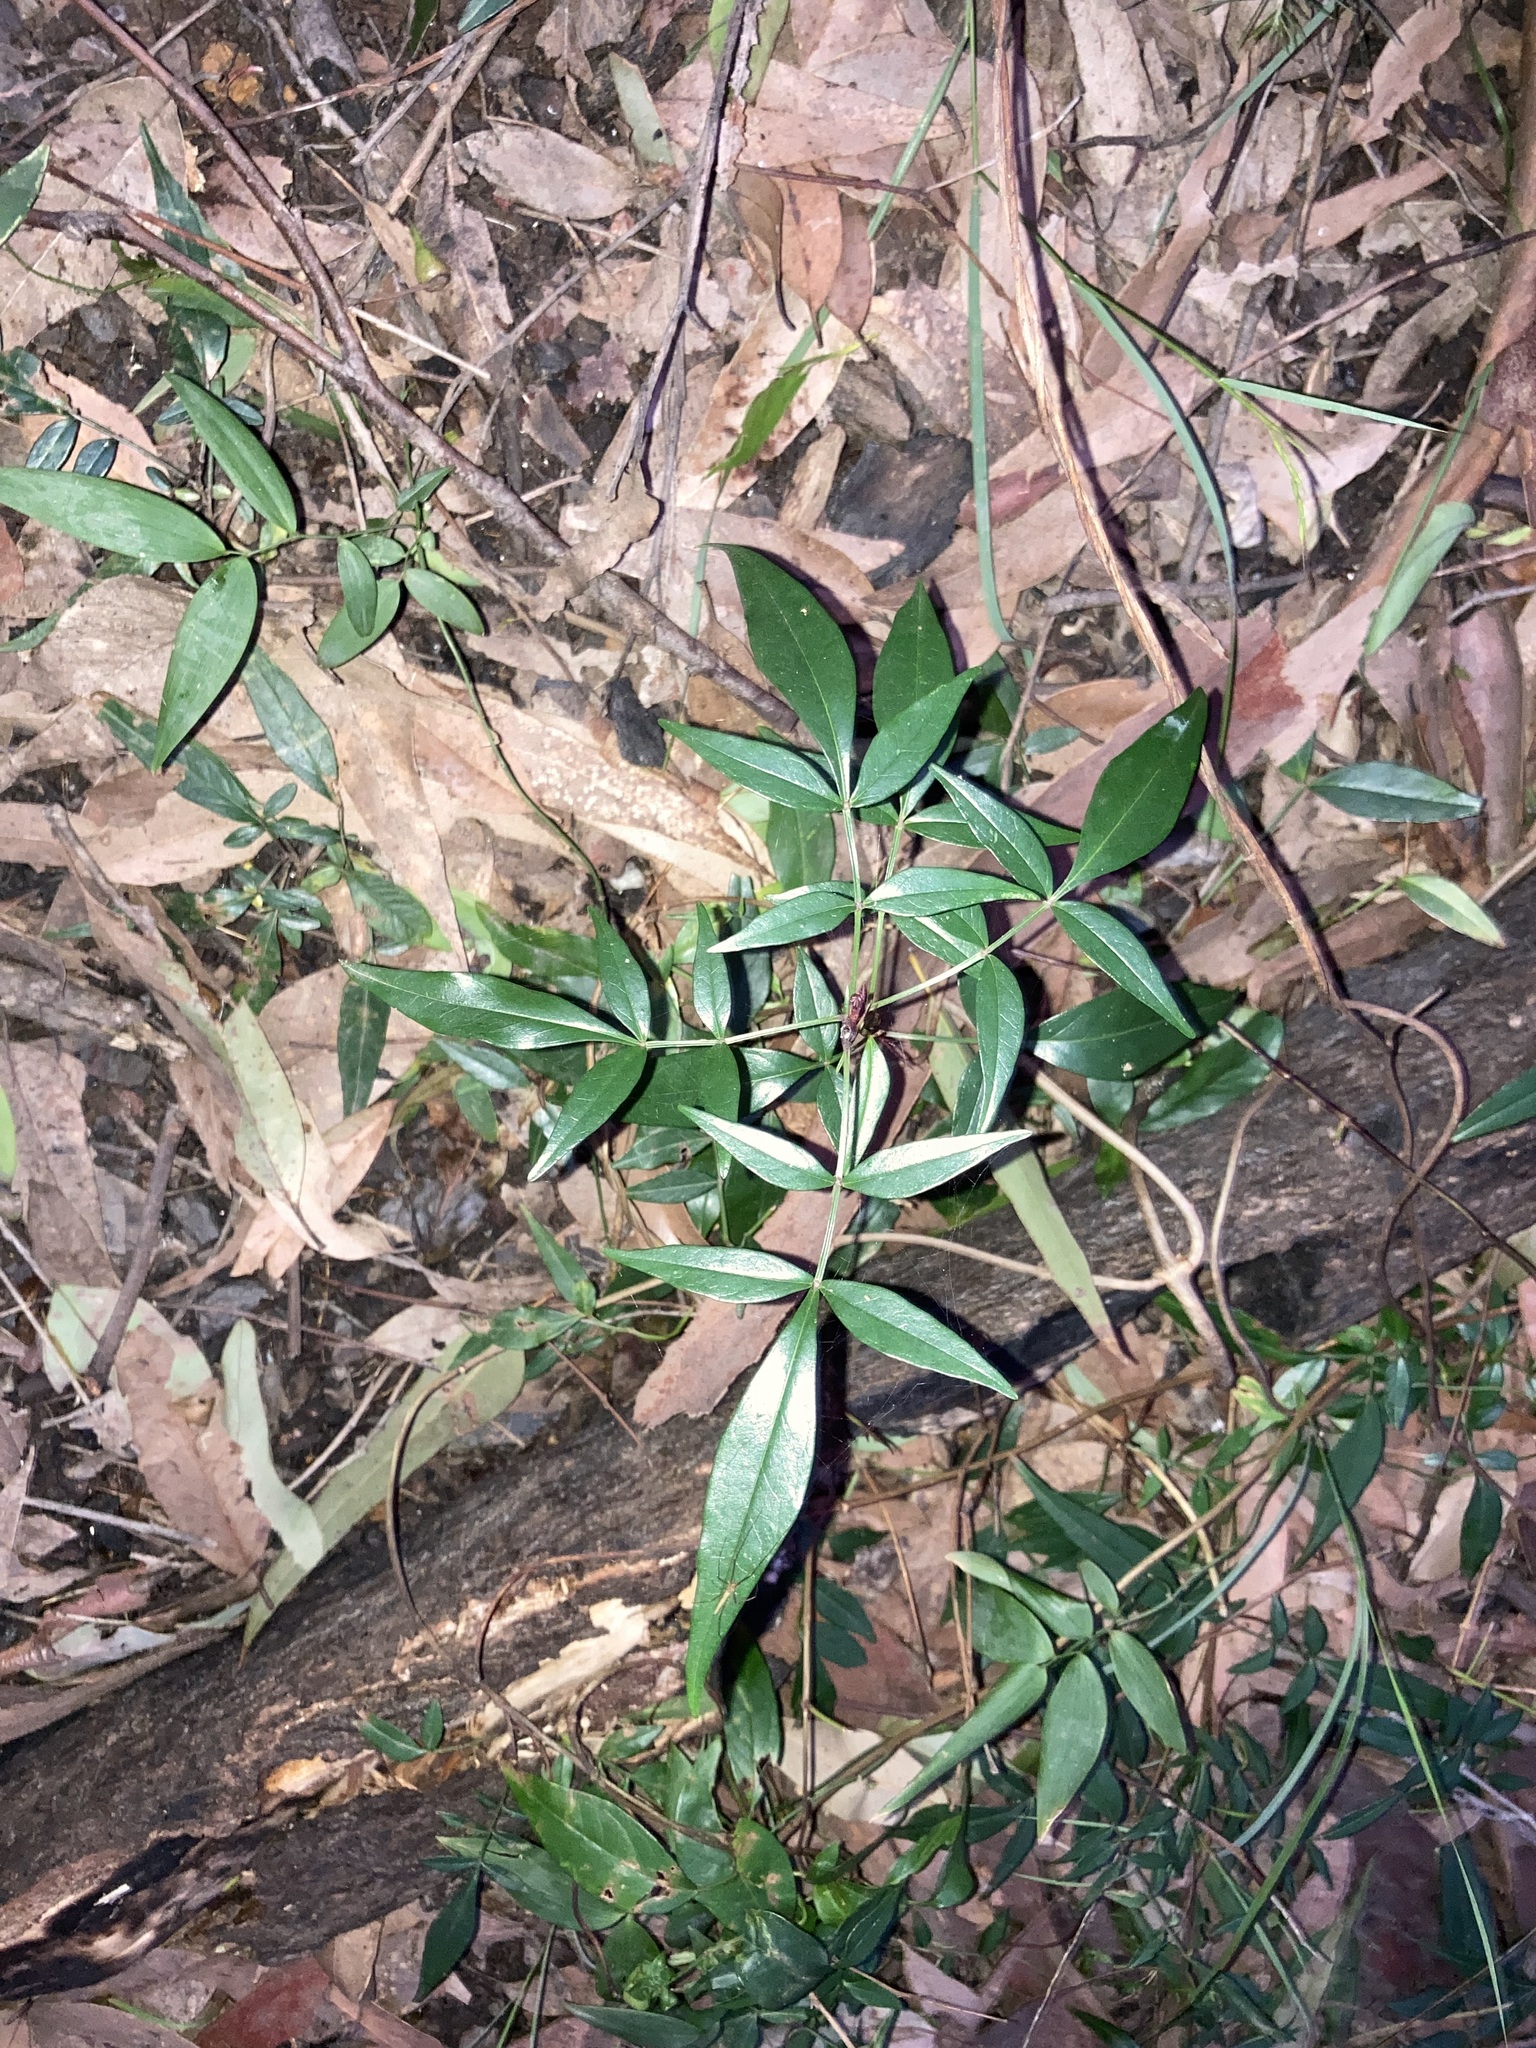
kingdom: Plantae
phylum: Tracheophyta
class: Magnoliopsida
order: Apiales
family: Araliaceae
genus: Polyscias
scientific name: Polyscias sambucifolia
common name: Elderberry-ash
